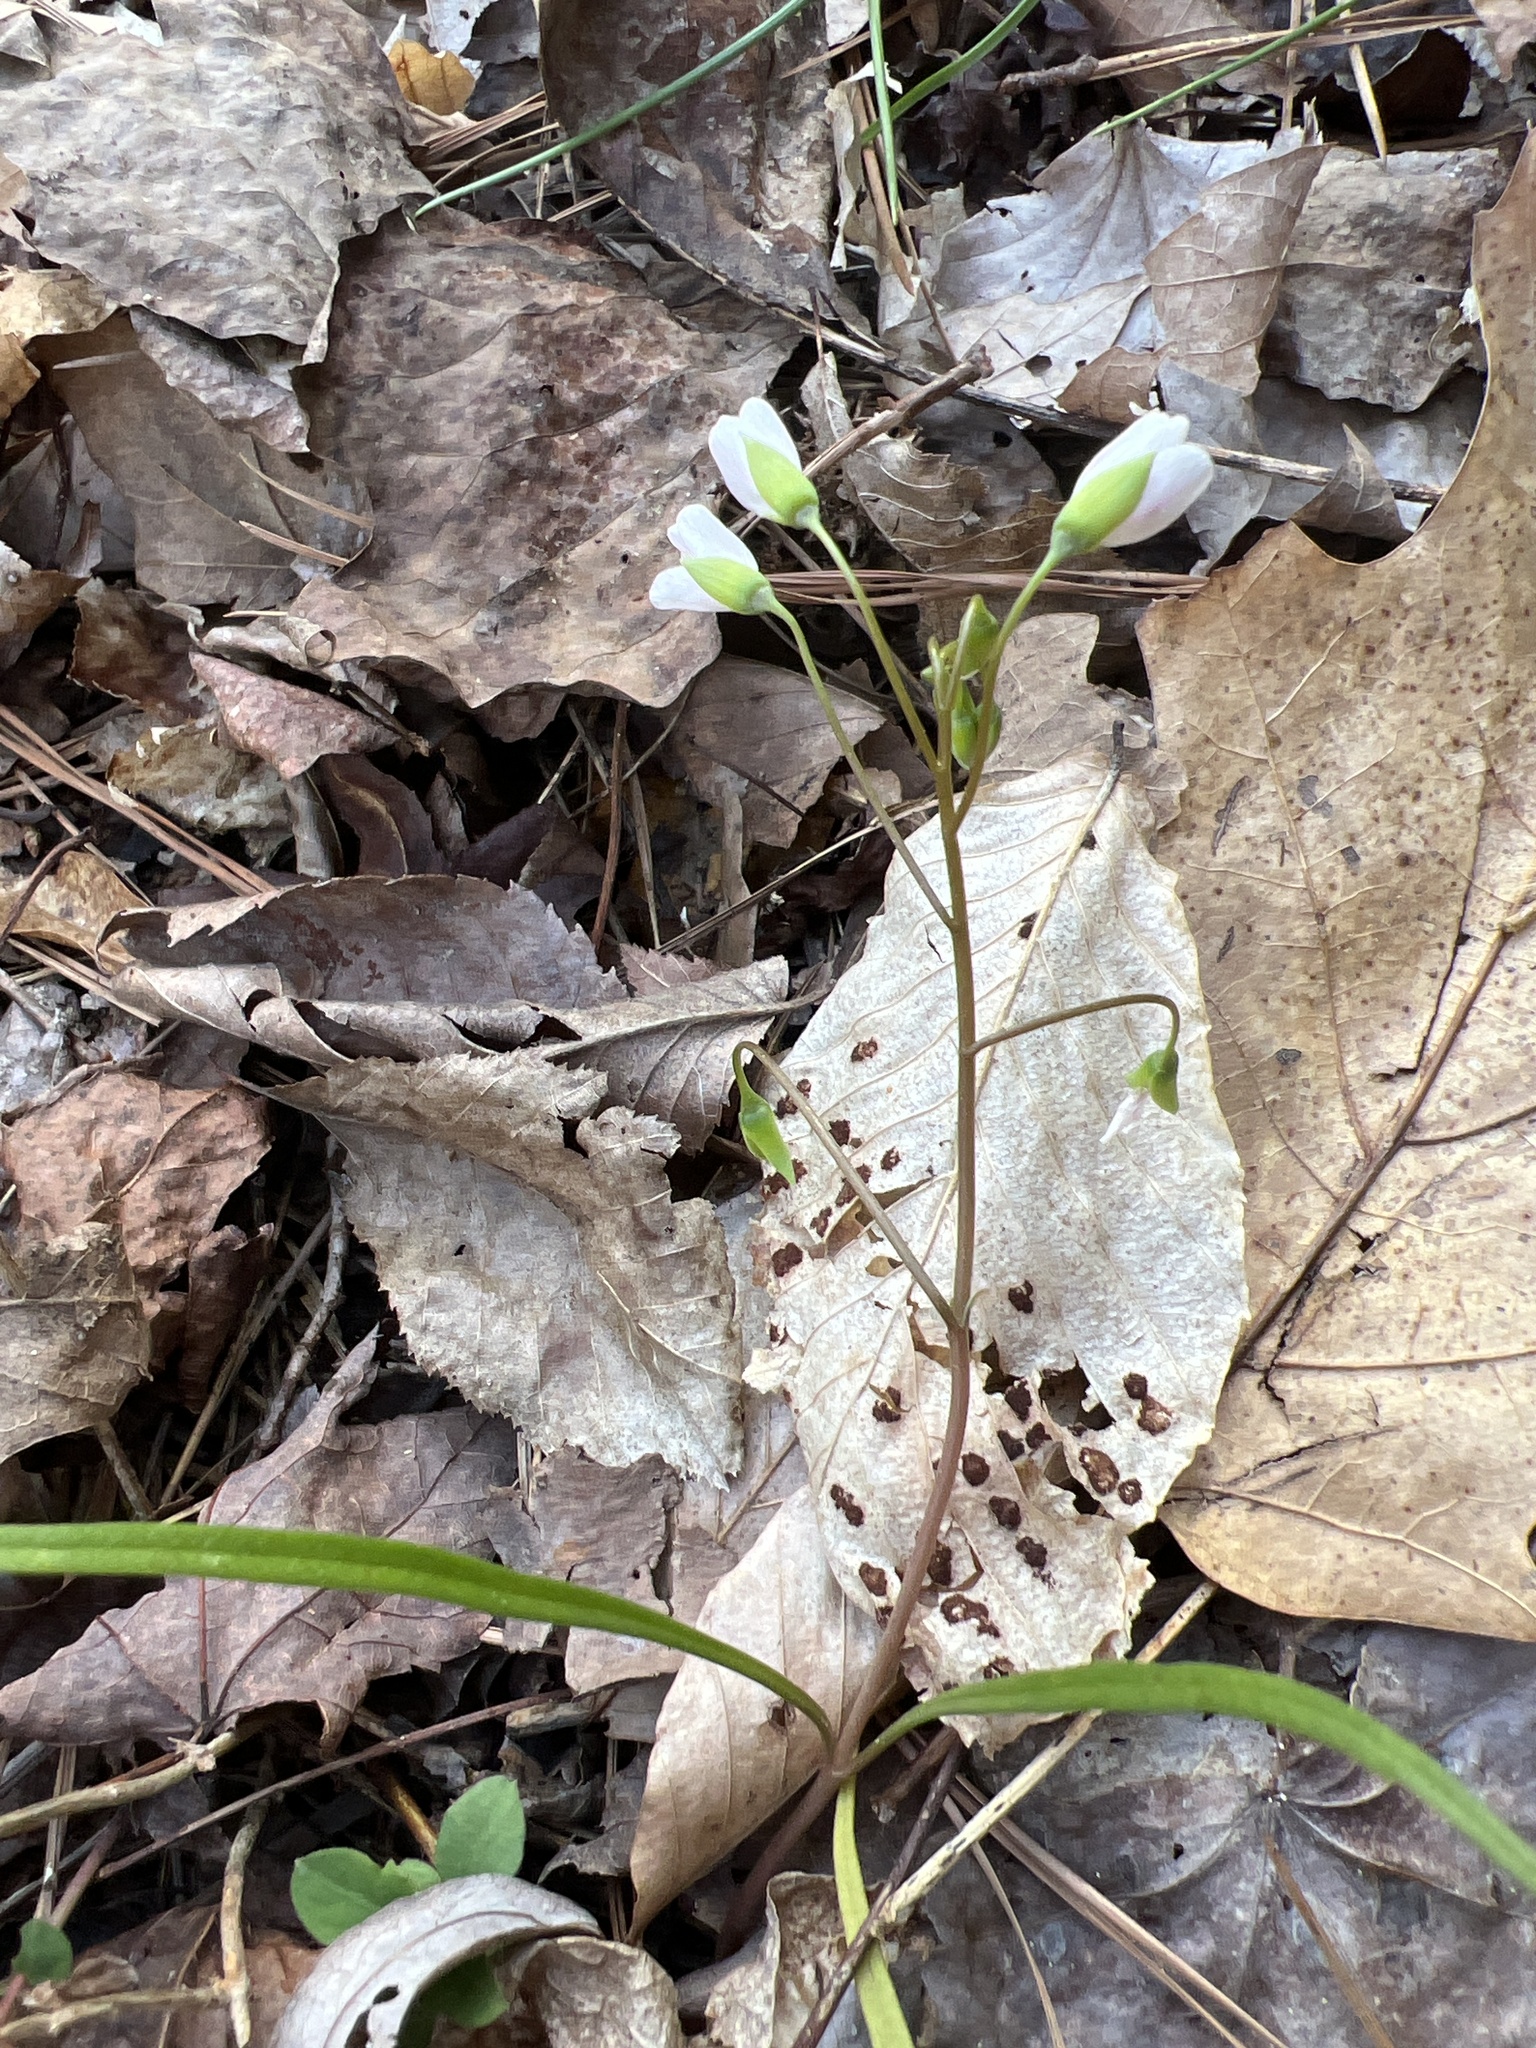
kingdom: Plantae
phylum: Tracheophyta
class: Magnoliopsida
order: Caryophyllales
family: Montiaceae
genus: Claytonia
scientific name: Claytonia virginica
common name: Virginia springbeauty
